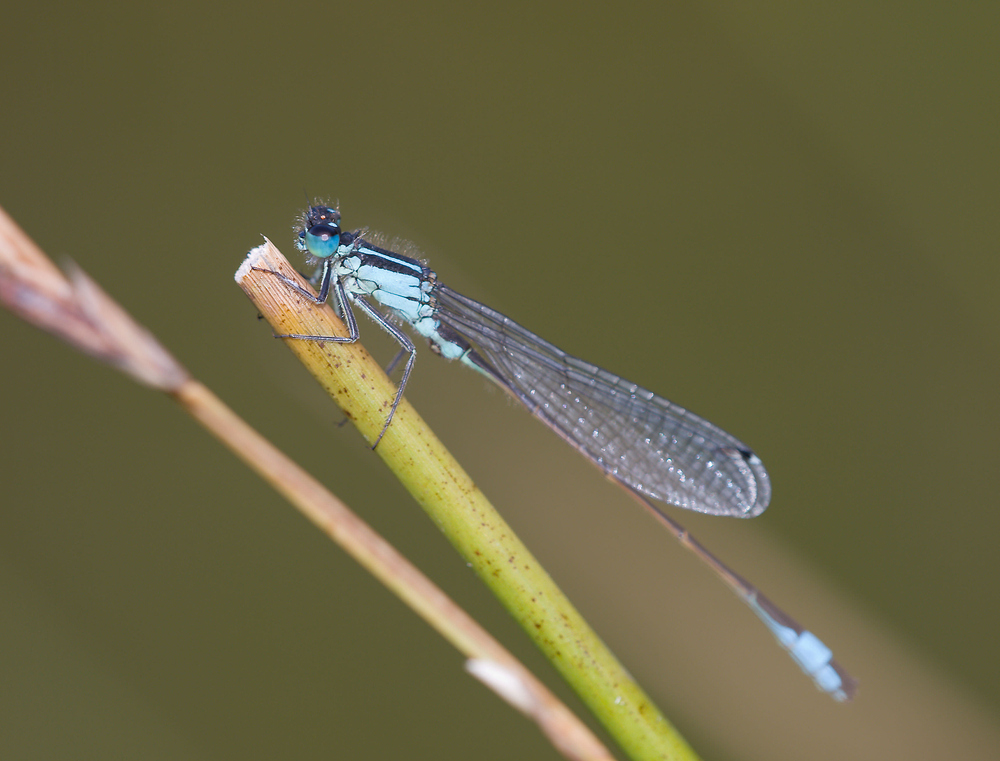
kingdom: Animalia
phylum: Arthropoda
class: Insecta
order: Odonata
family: Coenagrionidae
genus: Ischnura
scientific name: Ischnura elegans
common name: Blue-tailed damselfly
